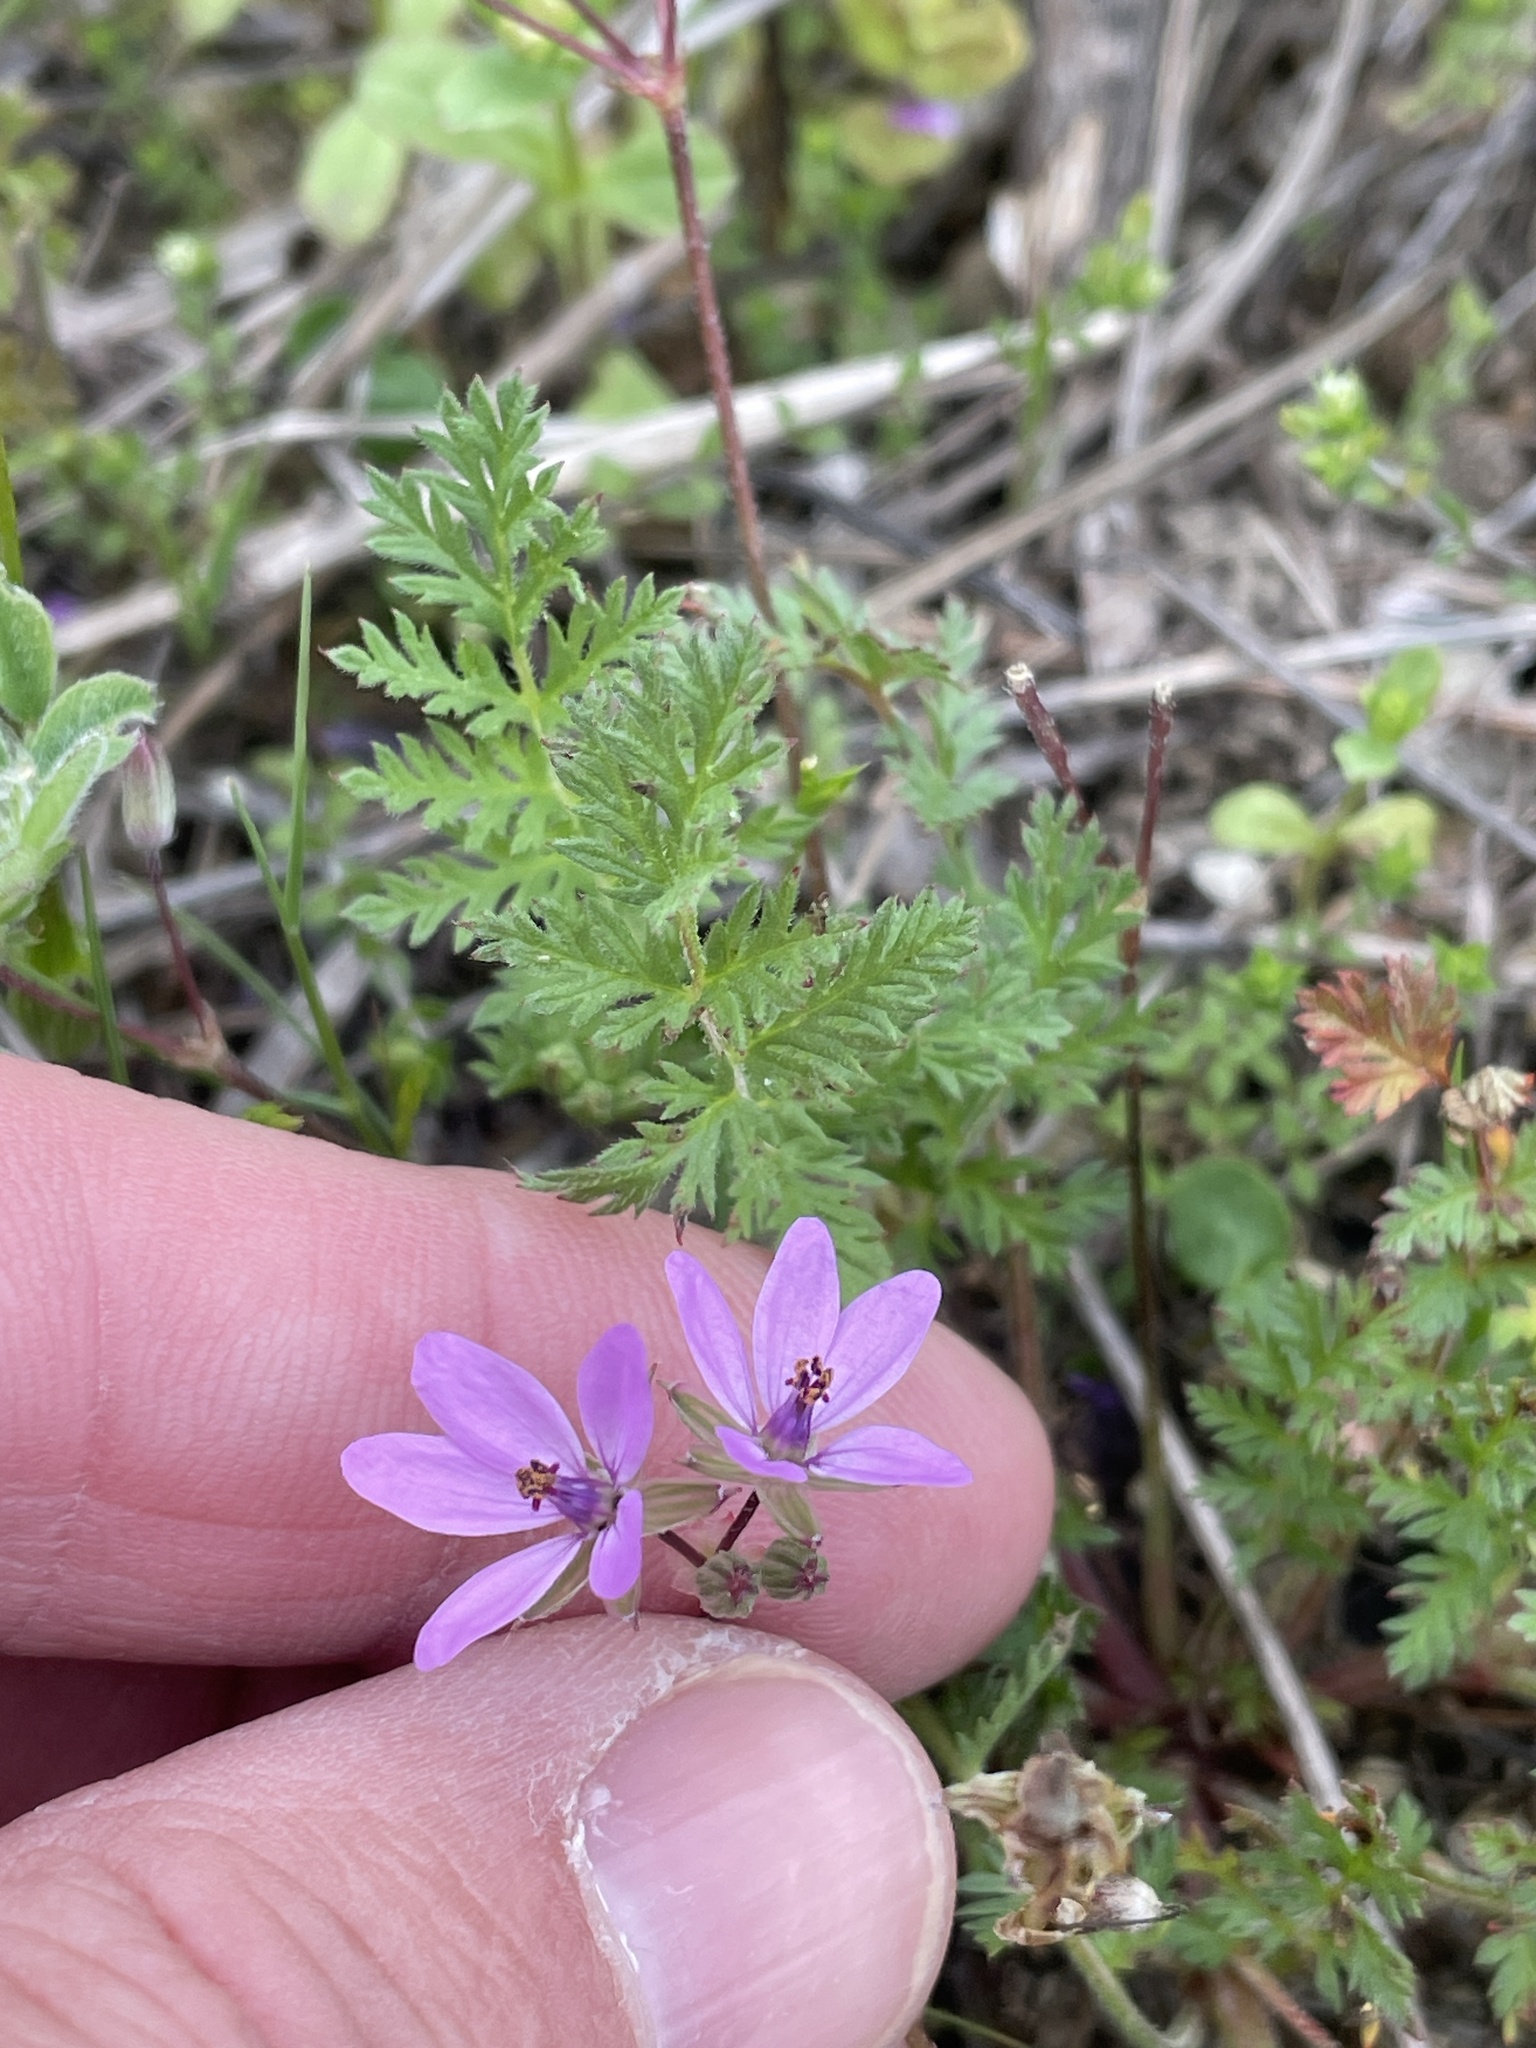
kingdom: Plantae
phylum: Tracheophyta
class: Magnoliopsida
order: Geraniales
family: Geraniaceae
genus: Erodium
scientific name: Erodium cicutarium
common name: Common stork's-bill
